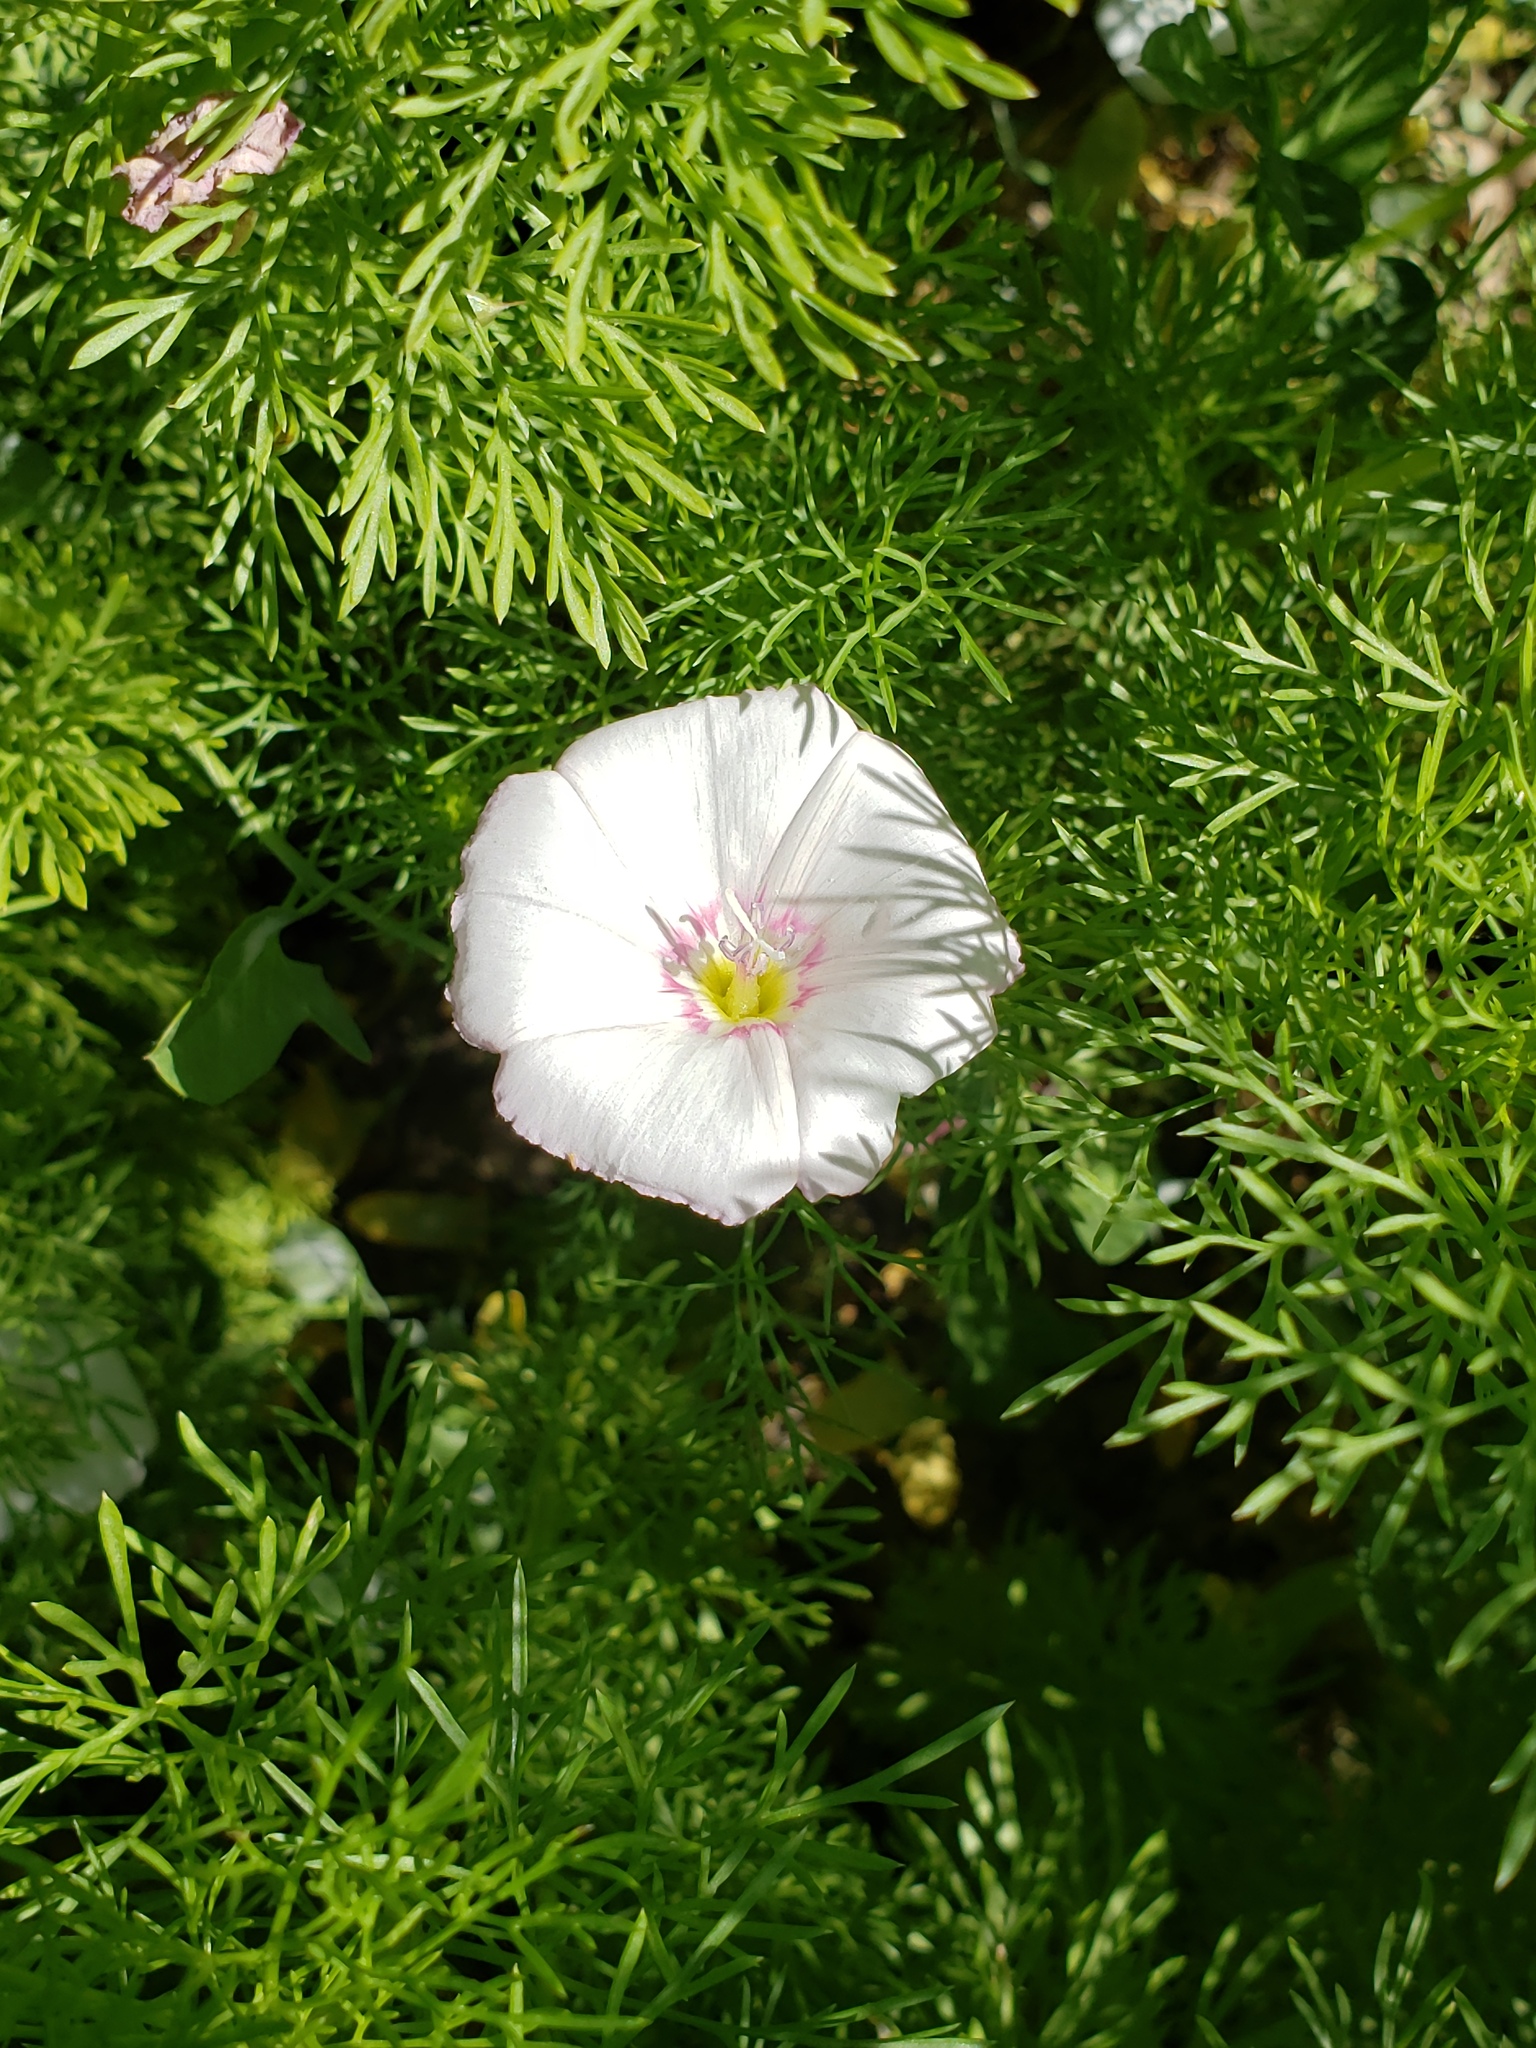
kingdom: Plantae
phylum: Tracheophyta
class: Magnoliopsida
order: Solanales
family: Convolvulaceae
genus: Convolvulus
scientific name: Convolvulus arvensis
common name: Field bindweed
